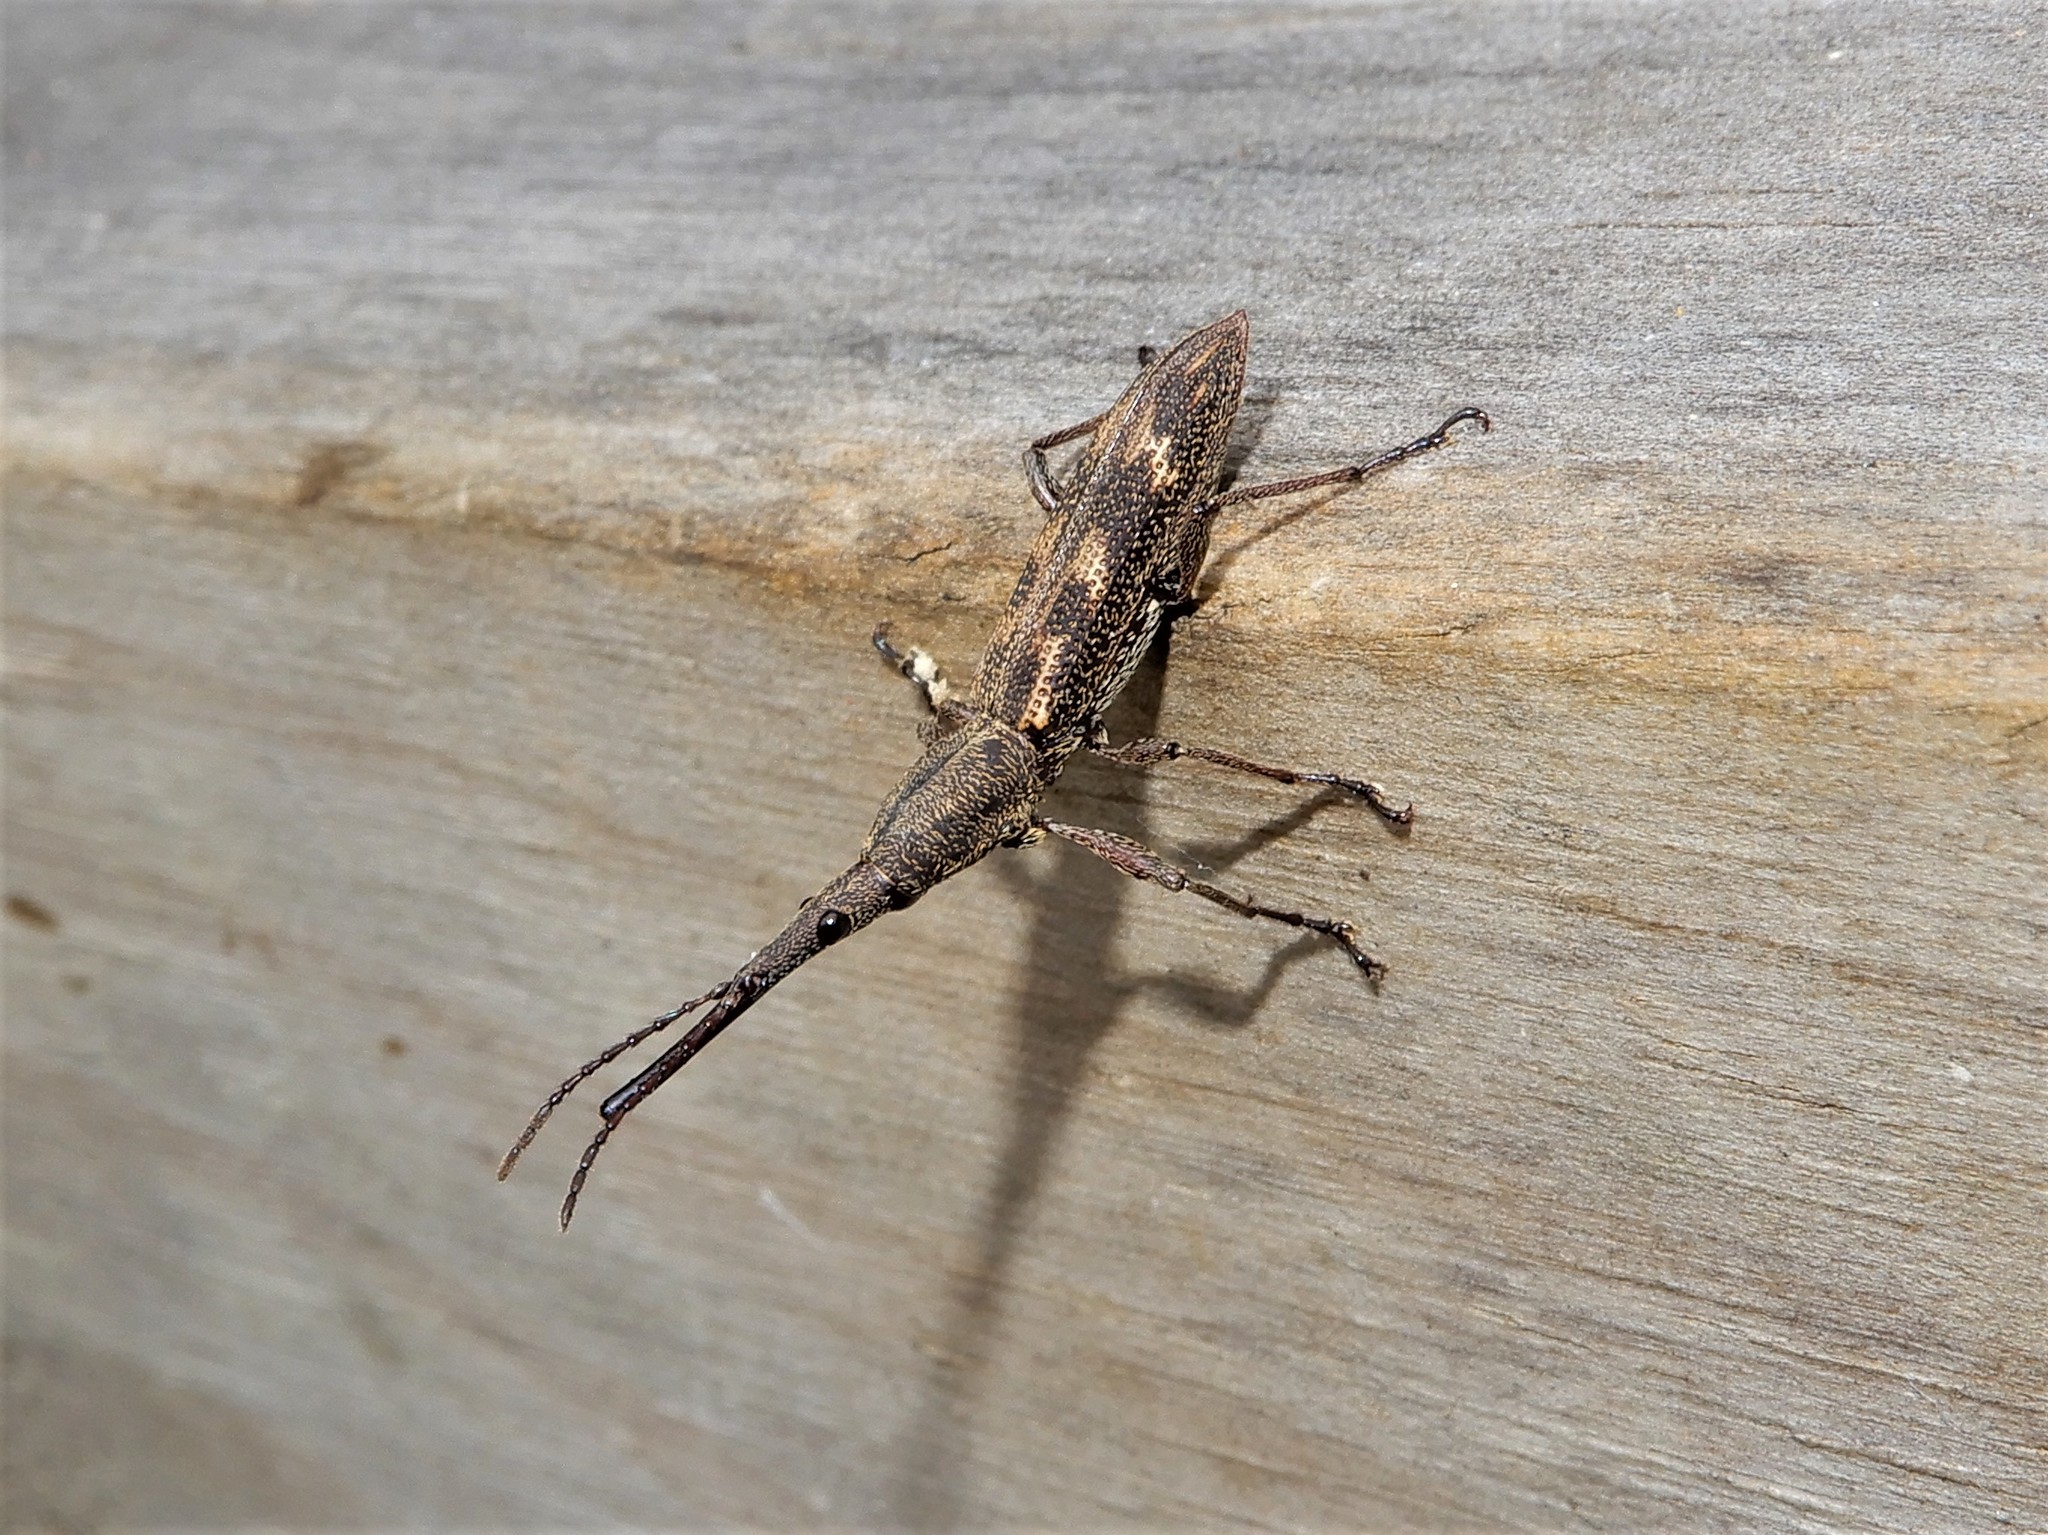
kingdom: Animalia
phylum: Arthropoda
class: Insecta
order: Coleoptera
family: Brentidae
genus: Lasiorhynchus
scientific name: Lasiorhynchus barbicornis
